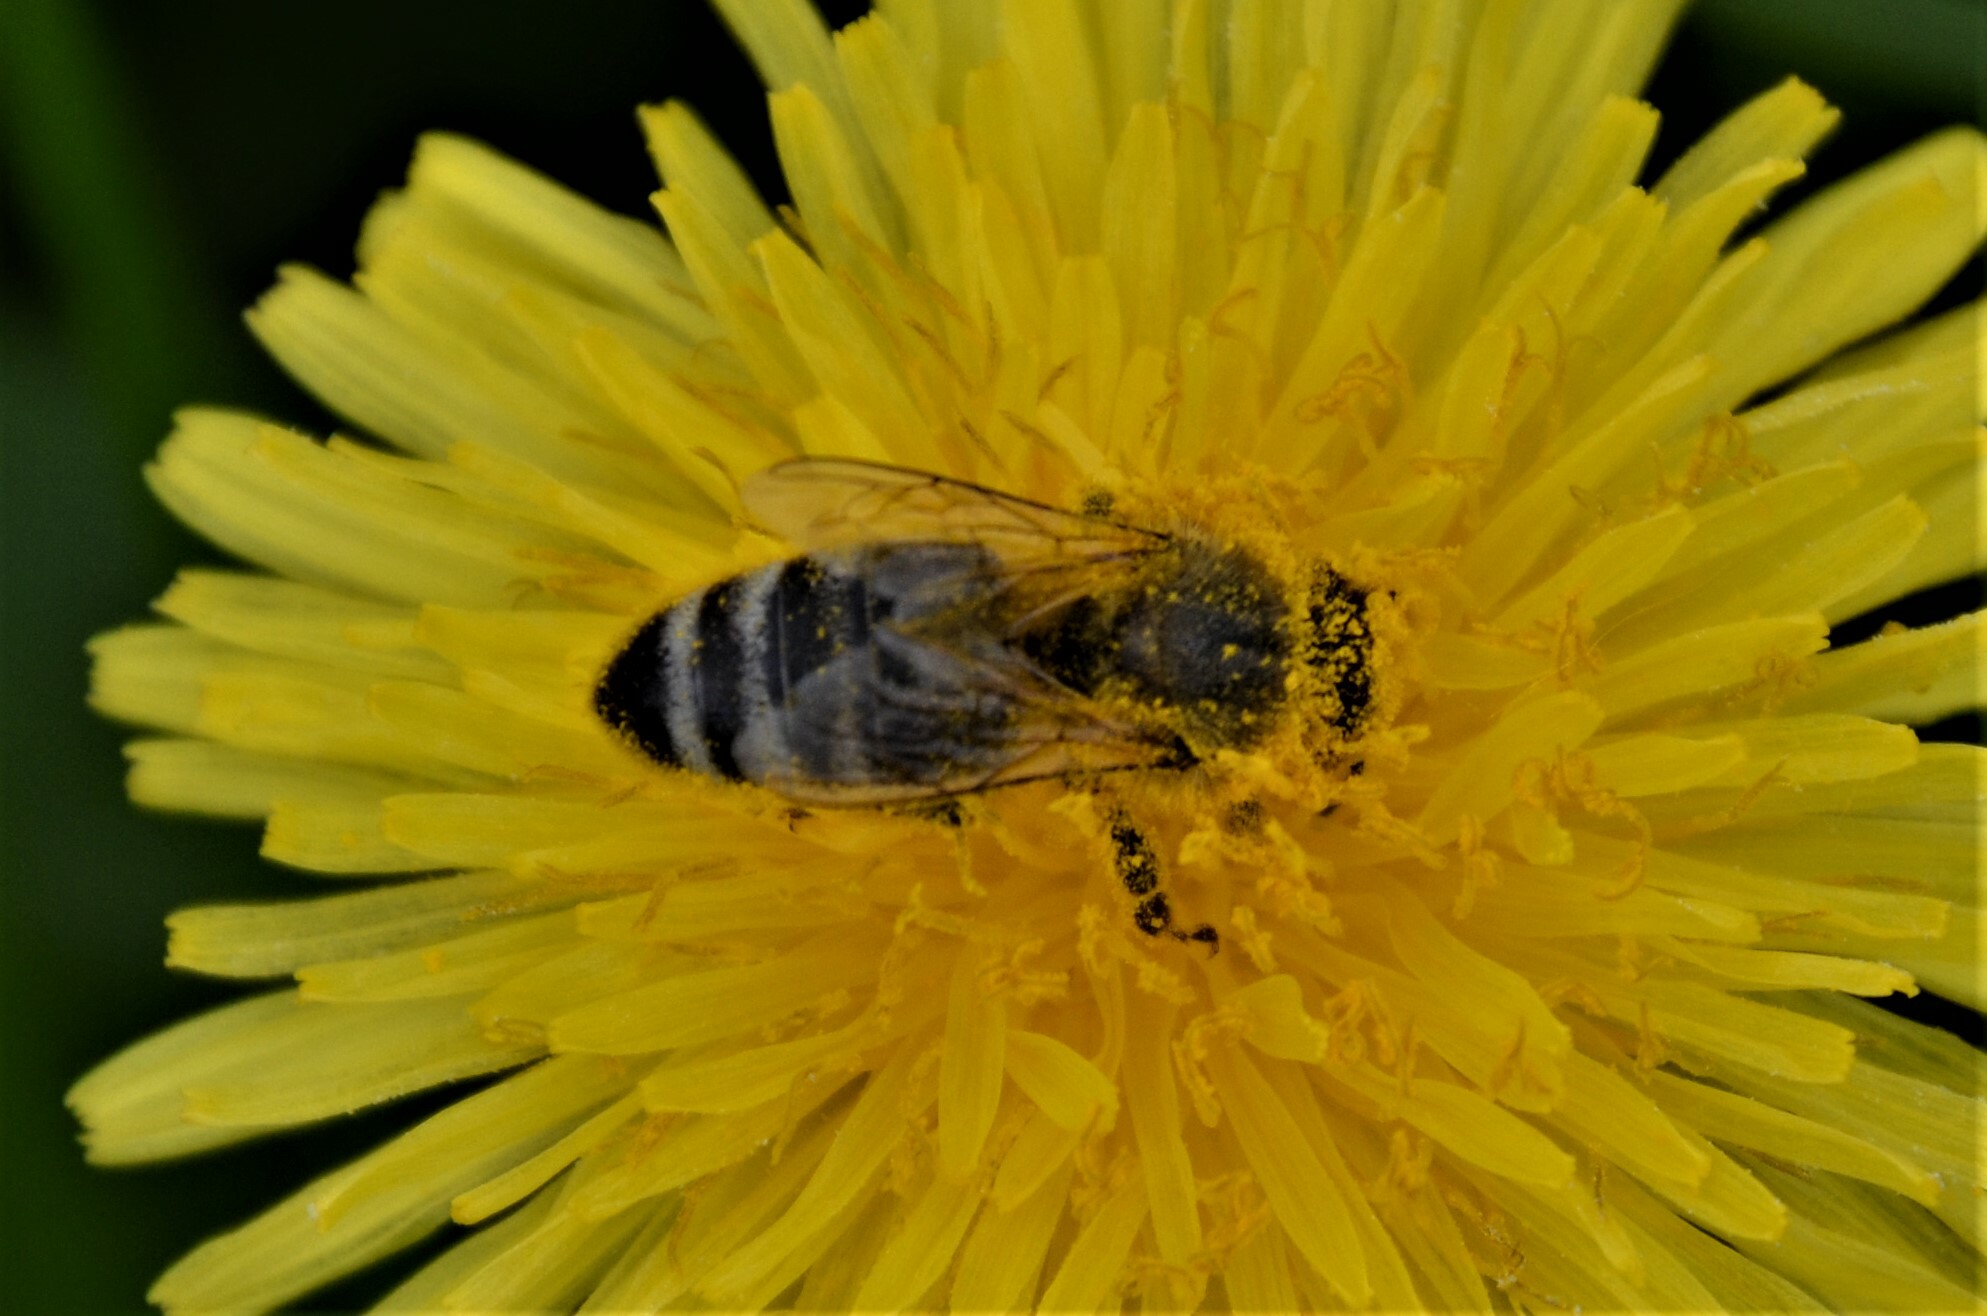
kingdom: Animalia
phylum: Arthropoda
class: Insecta
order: Hymenoptera
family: Apidae
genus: Apis
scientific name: Apis mellifera
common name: Honey bee
